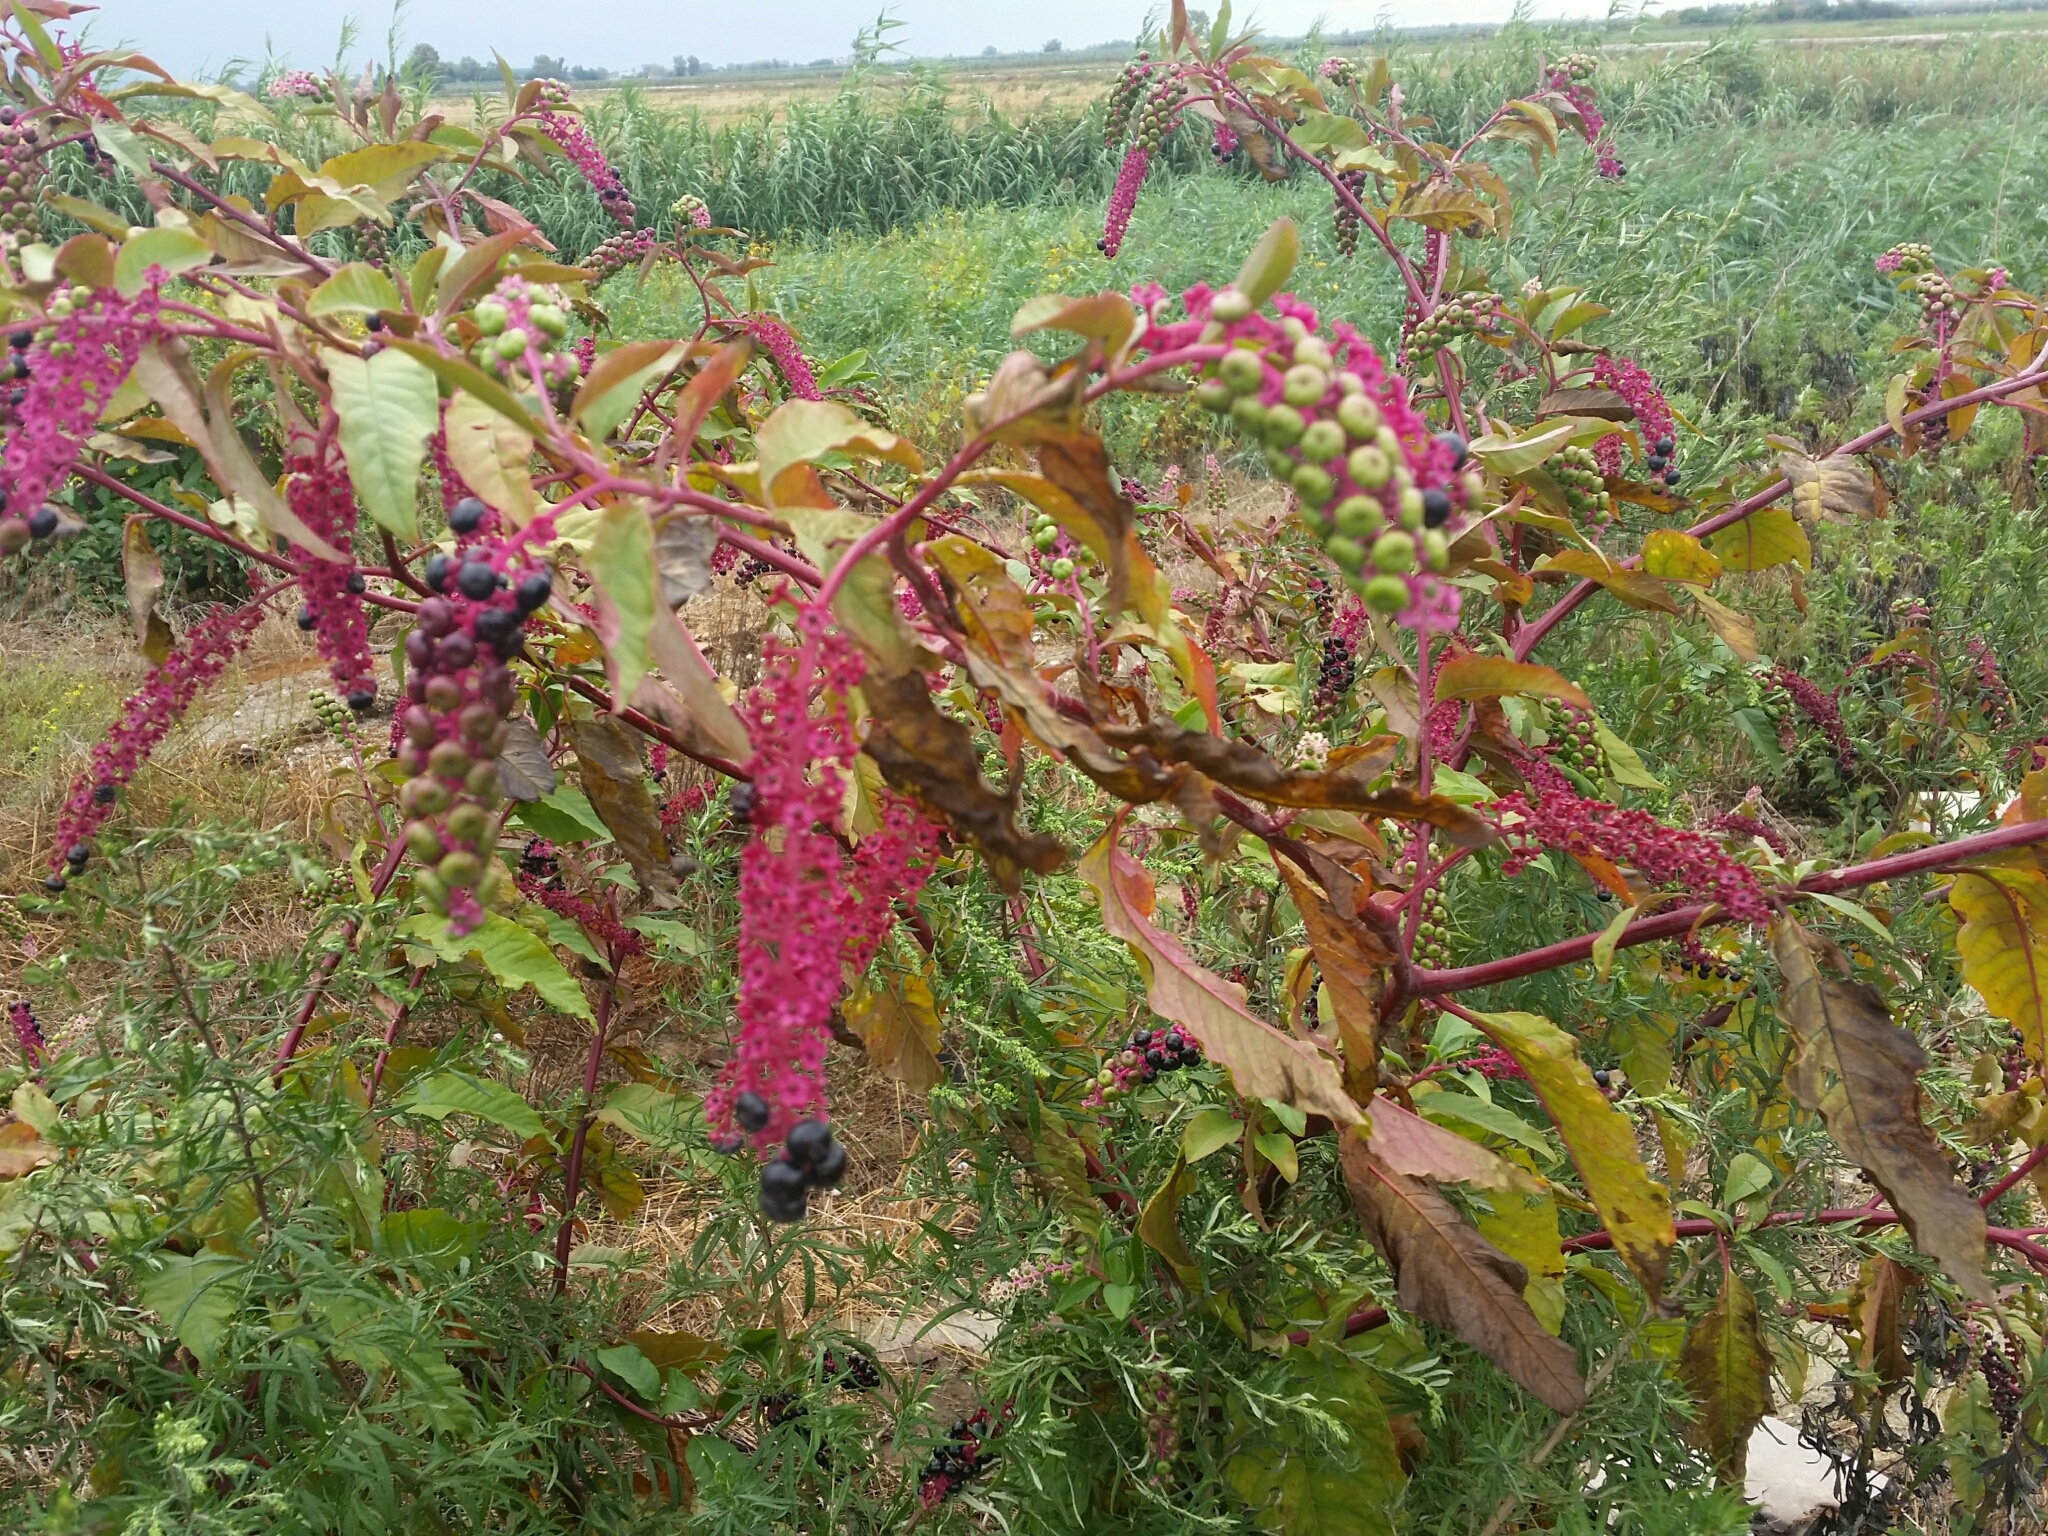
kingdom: Plantae
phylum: Tracheophyta
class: Magnoliopsida
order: Caryophyllales
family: Phytolaccaceae
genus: Phytolacca
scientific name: Phytolacca americana
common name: American pokeweed
